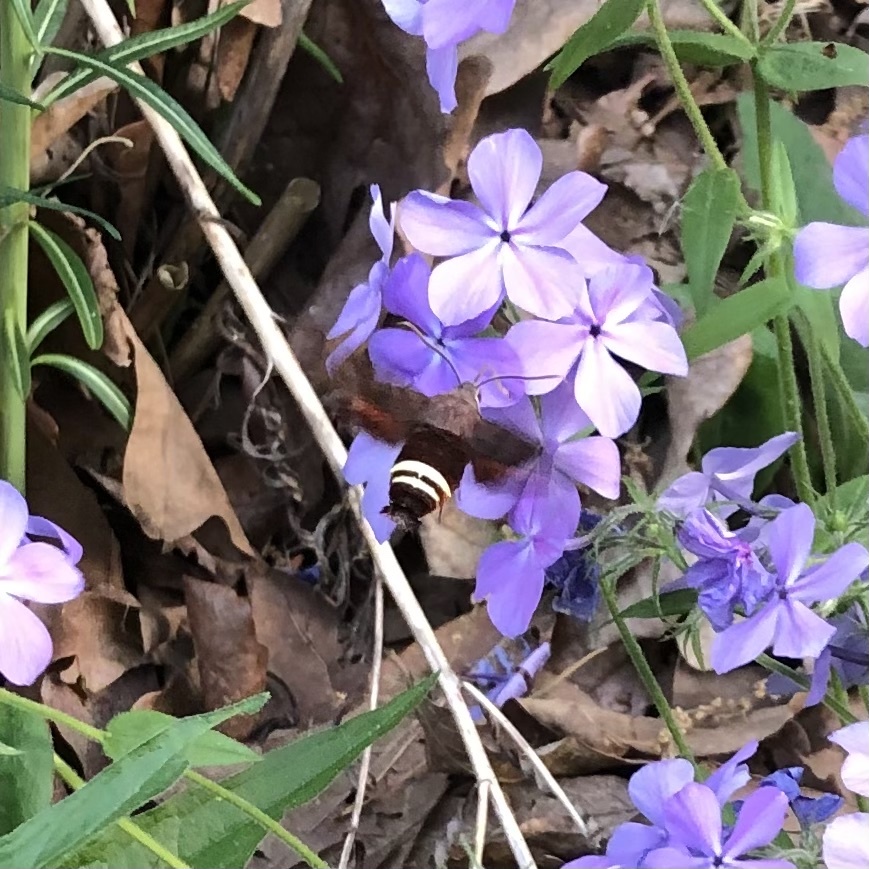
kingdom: Animalia
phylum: Arthropoda
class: Insecta
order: Lepidoptera
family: Sphingidae
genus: Amphion
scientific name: Amphion floridensis
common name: Nessus sphinx
